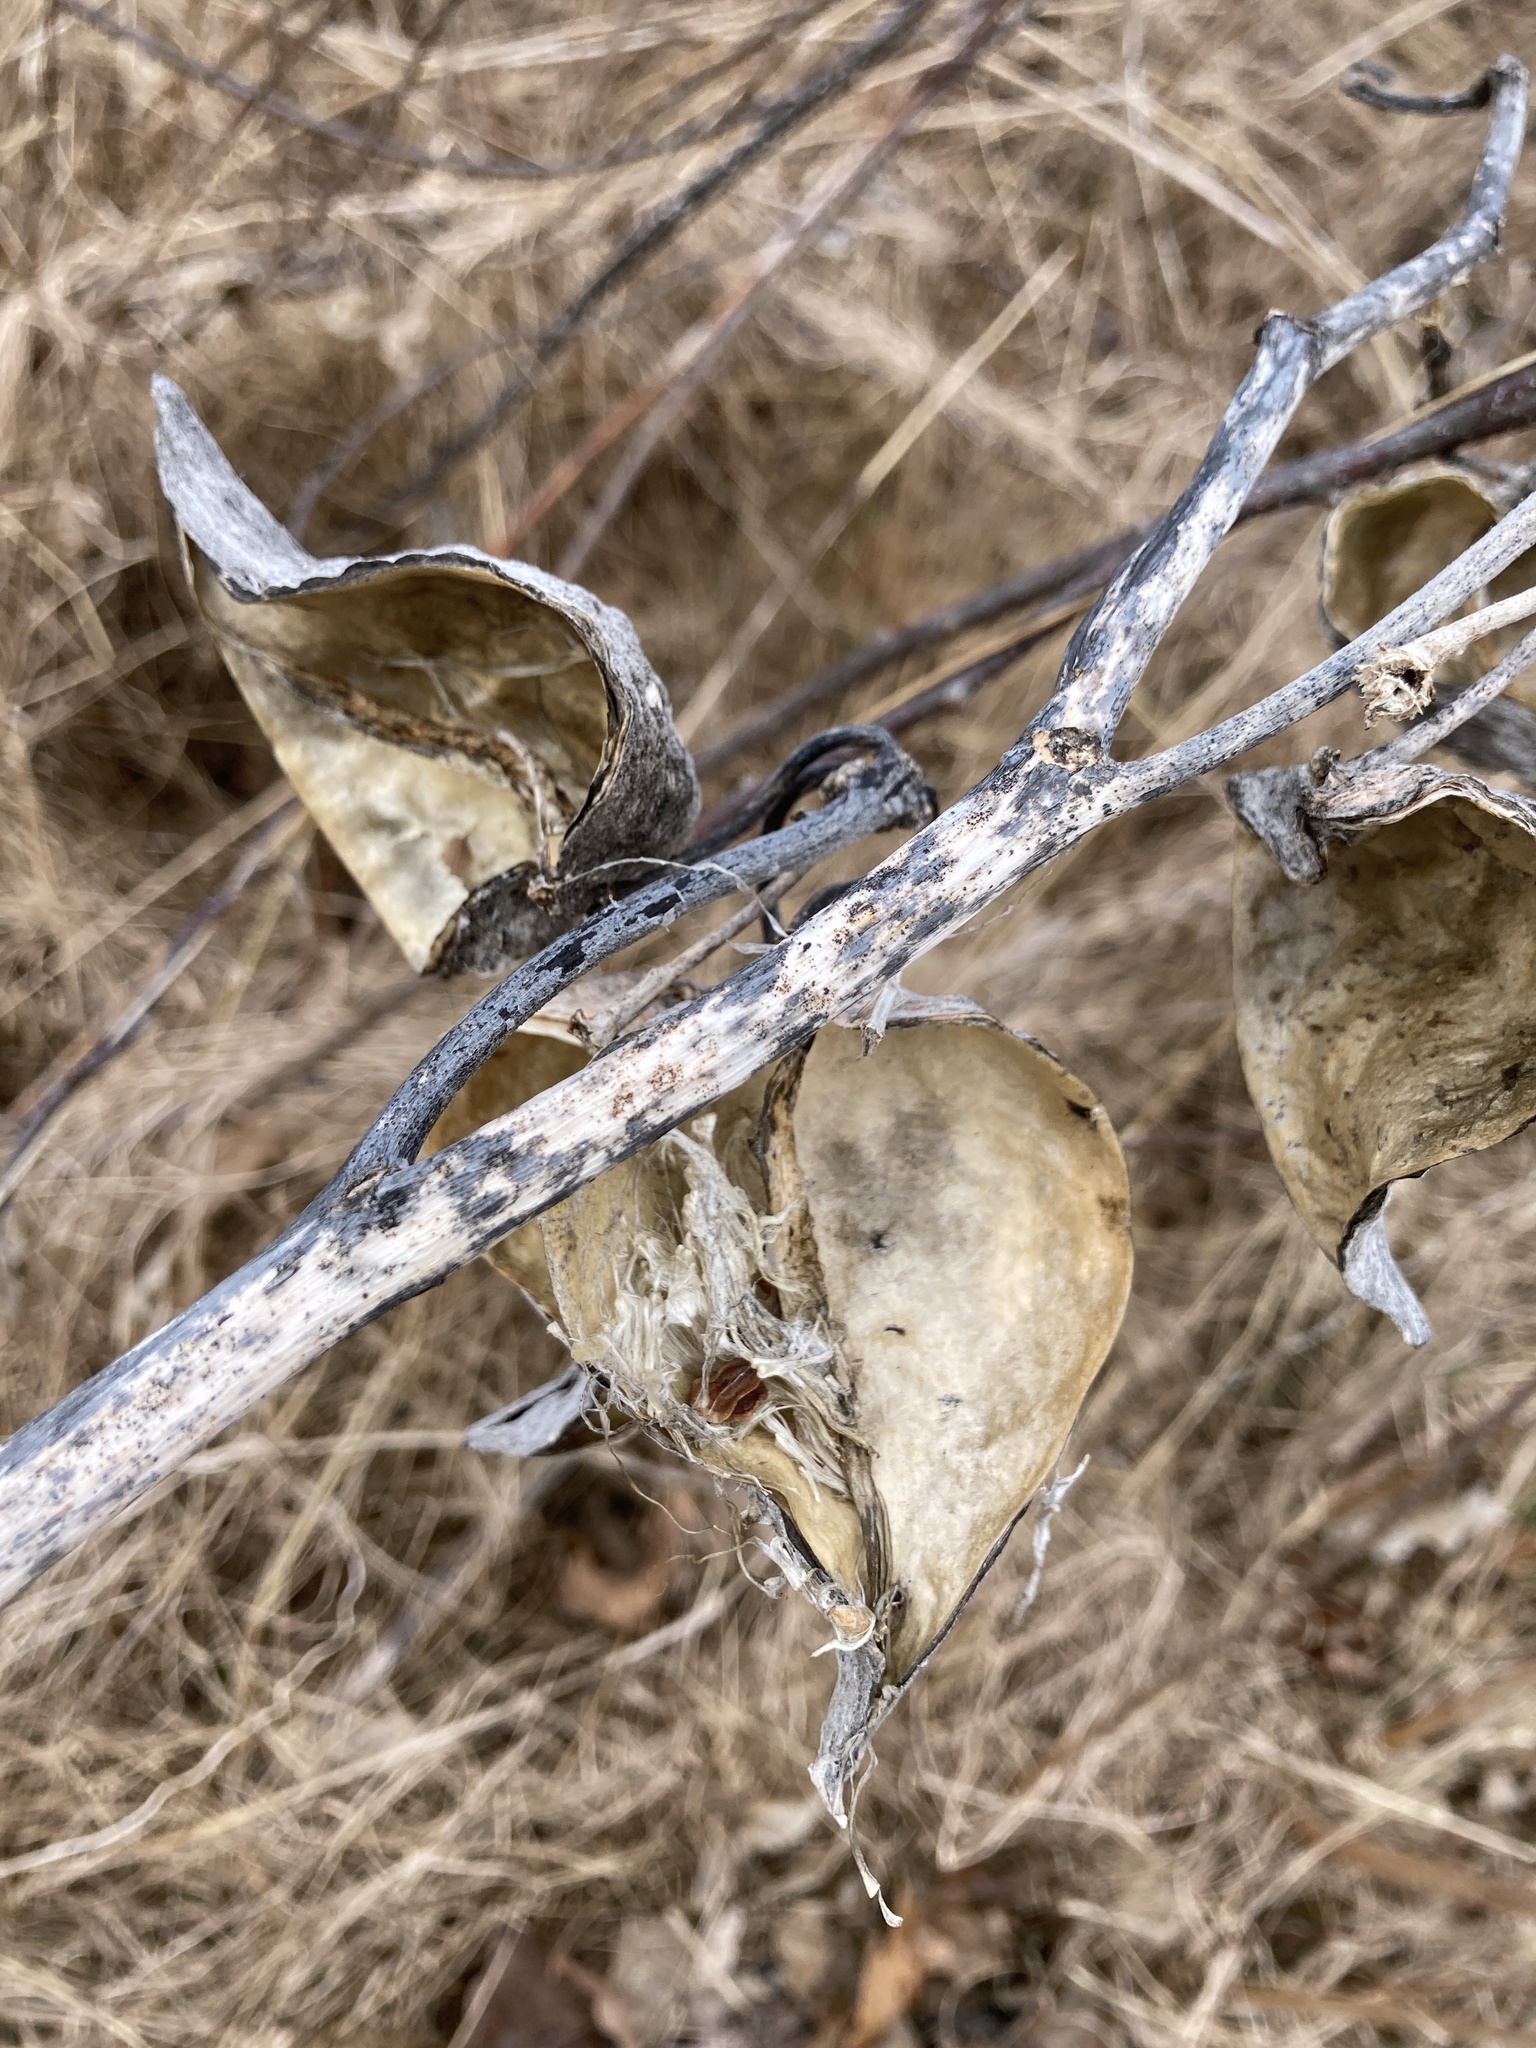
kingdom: Plantae
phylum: Tracheophyta
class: Magnoliopsida
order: Gentianales
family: Apocynaceae
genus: Asclepias
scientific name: Asclepias syriaca
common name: Common milkweed
